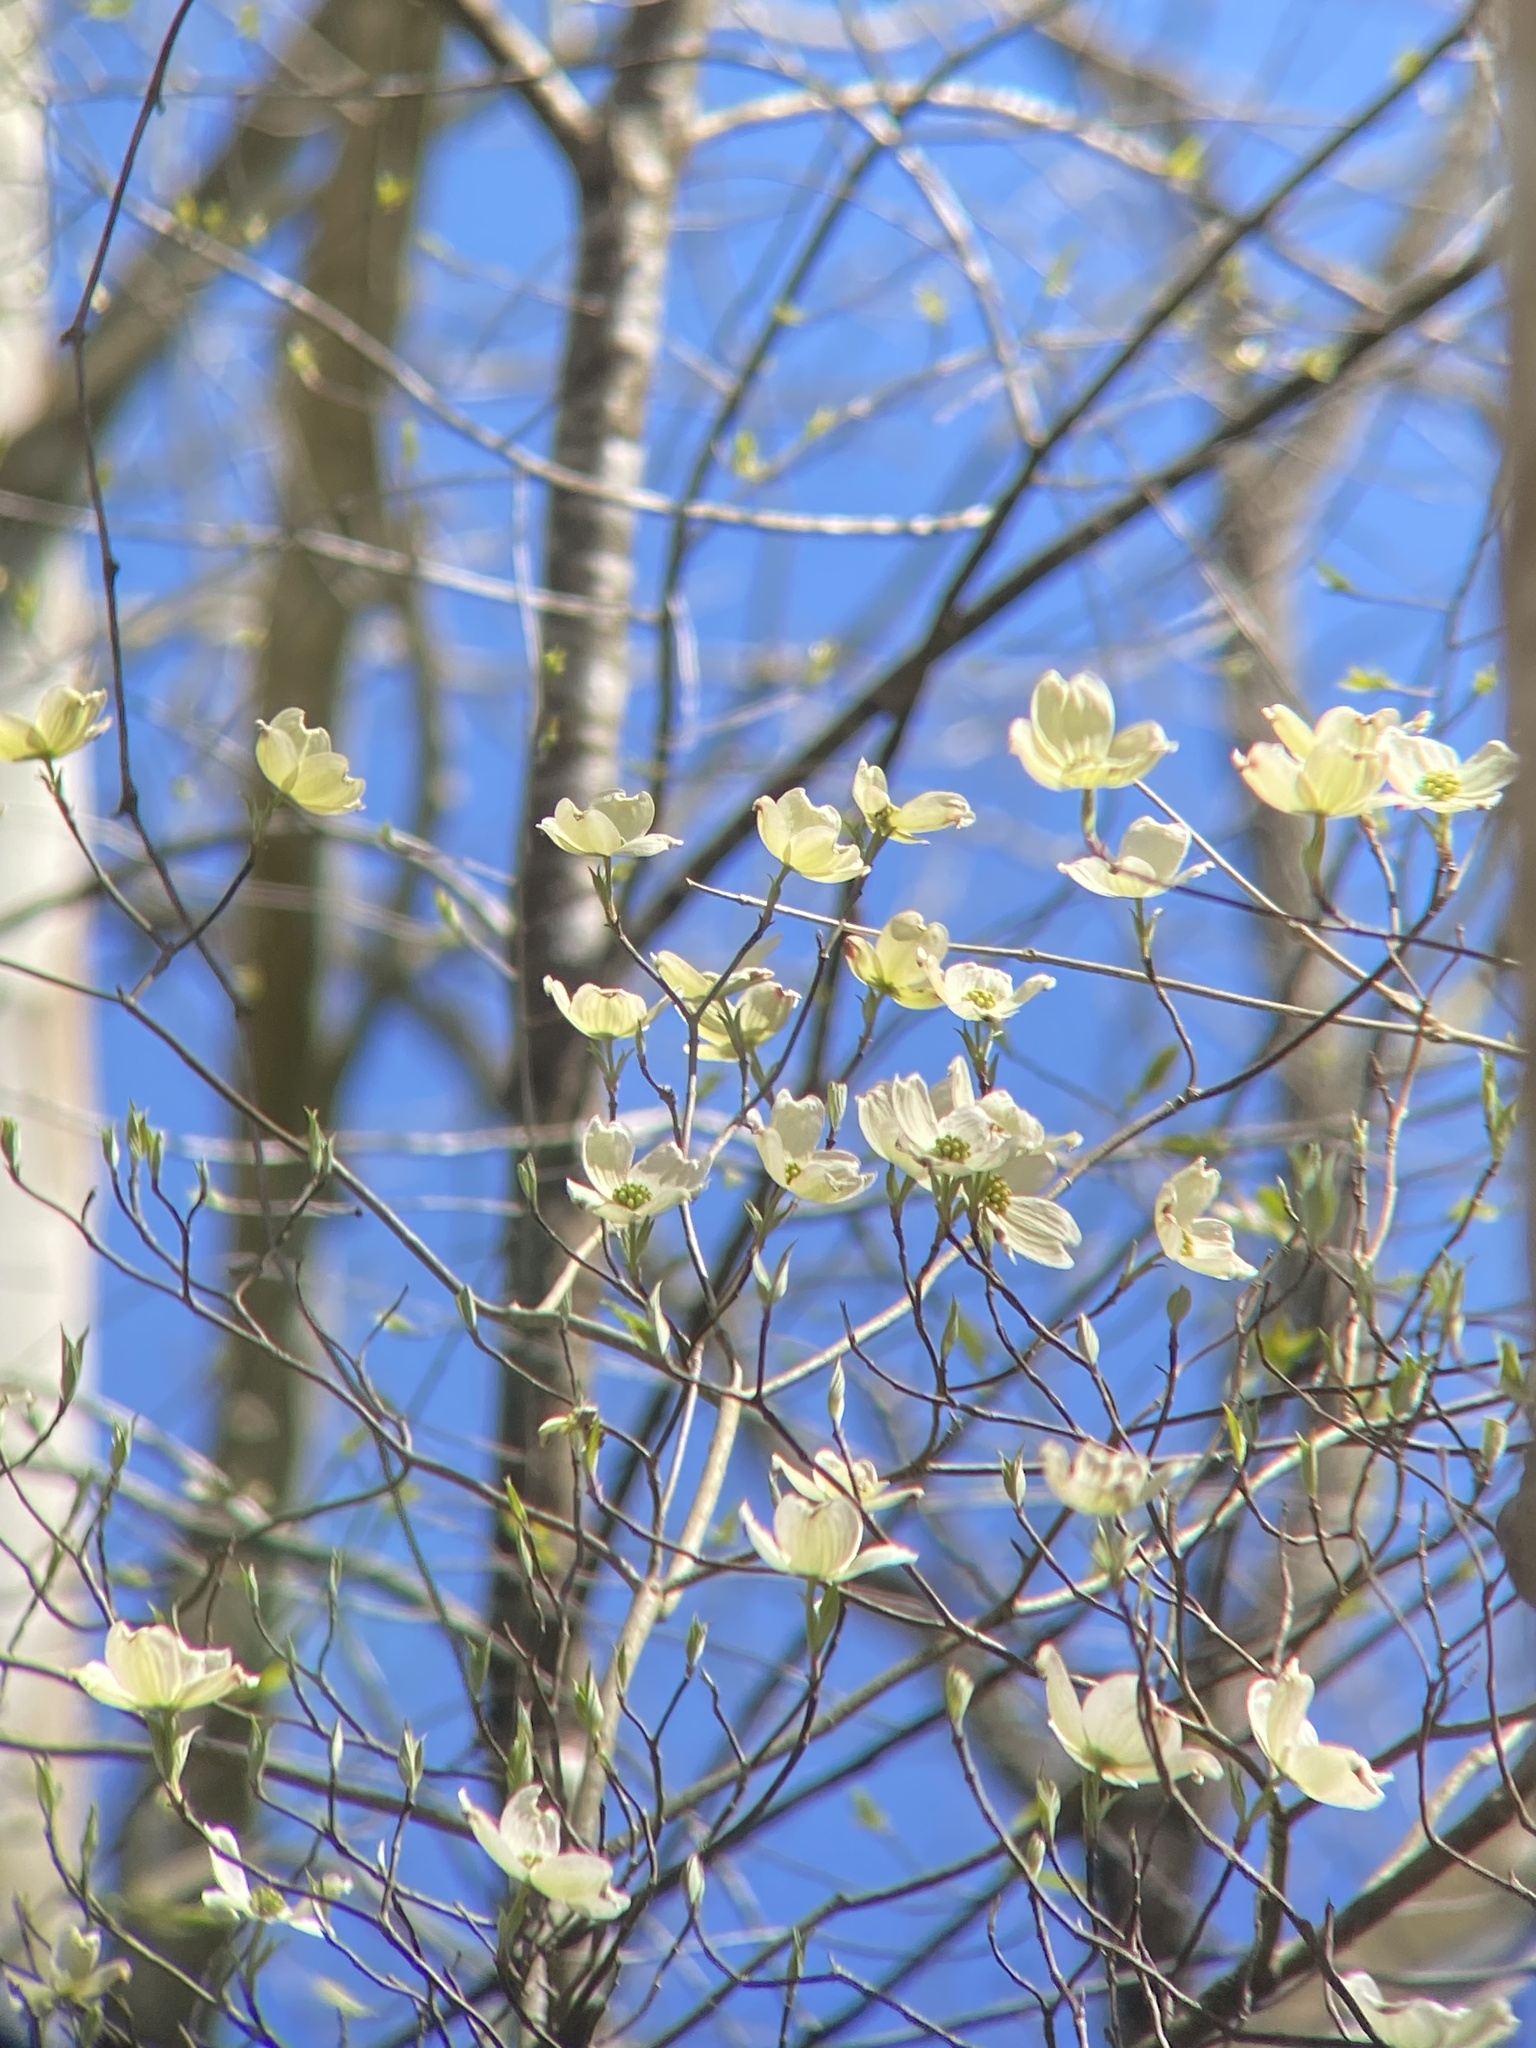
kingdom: Plantae
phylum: Tracheophyta
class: Magnoliopsida
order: Cornales
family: Cornaceae
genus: Cornus
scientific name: Cornus florida
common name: Flowering dogwood
